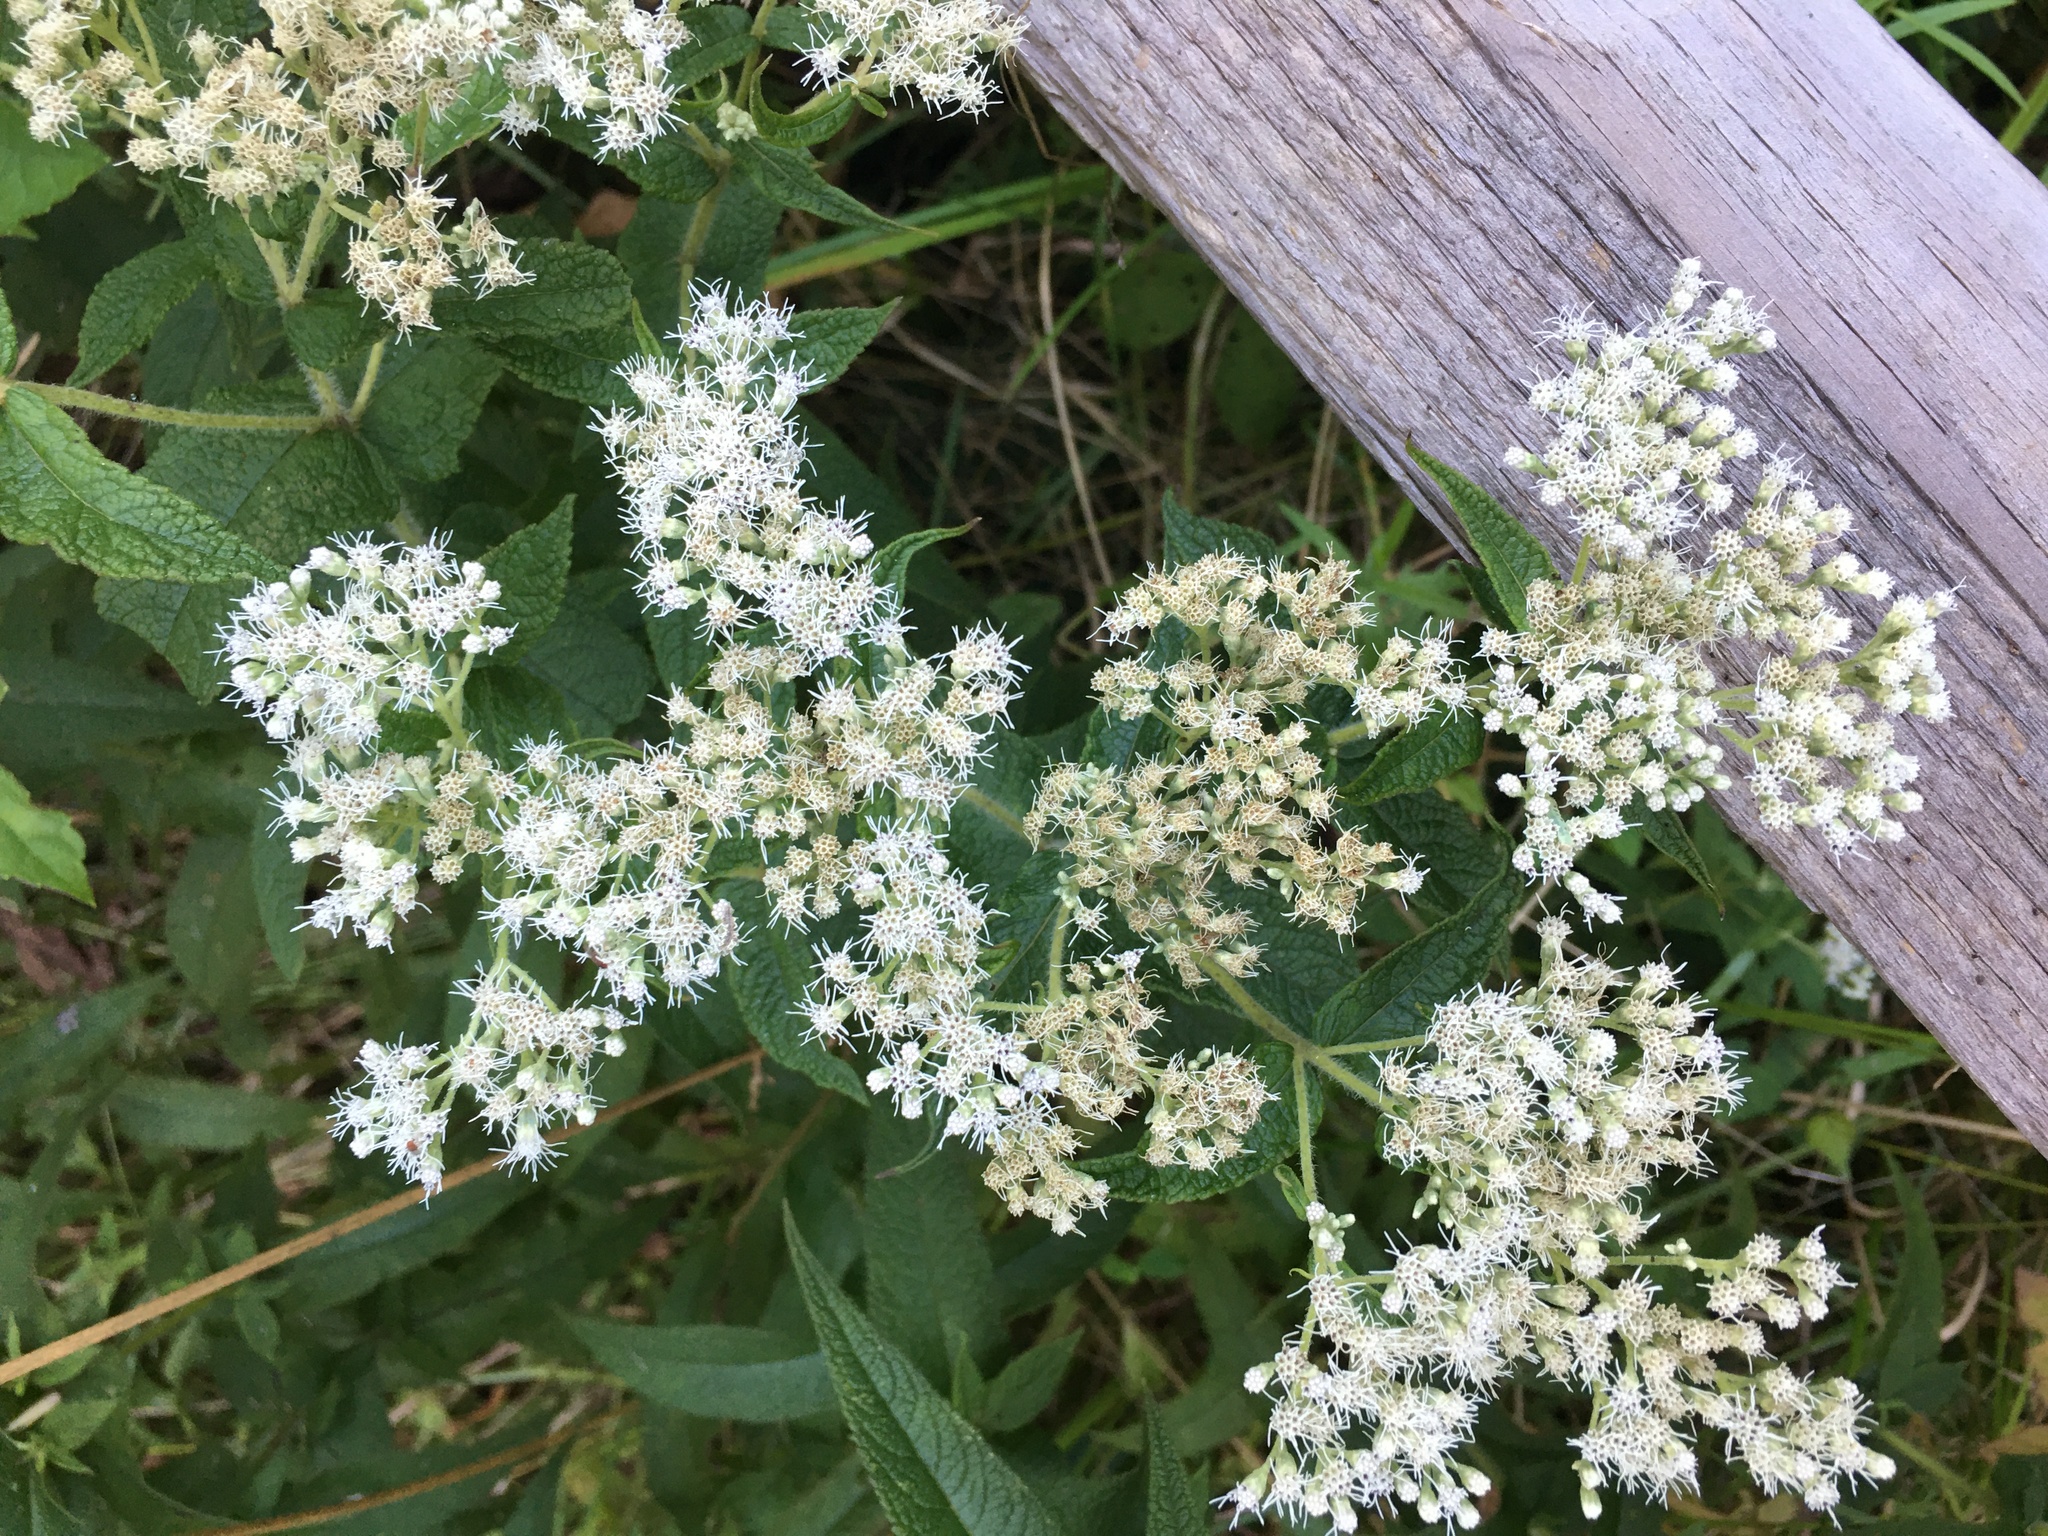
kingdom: Plantae
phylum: Tracheophyta
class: Magnoliopsida
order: Asterales
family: Asteraceae
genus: Eupatorium
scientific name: Eupatorium perfoliatum
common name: Boneset
